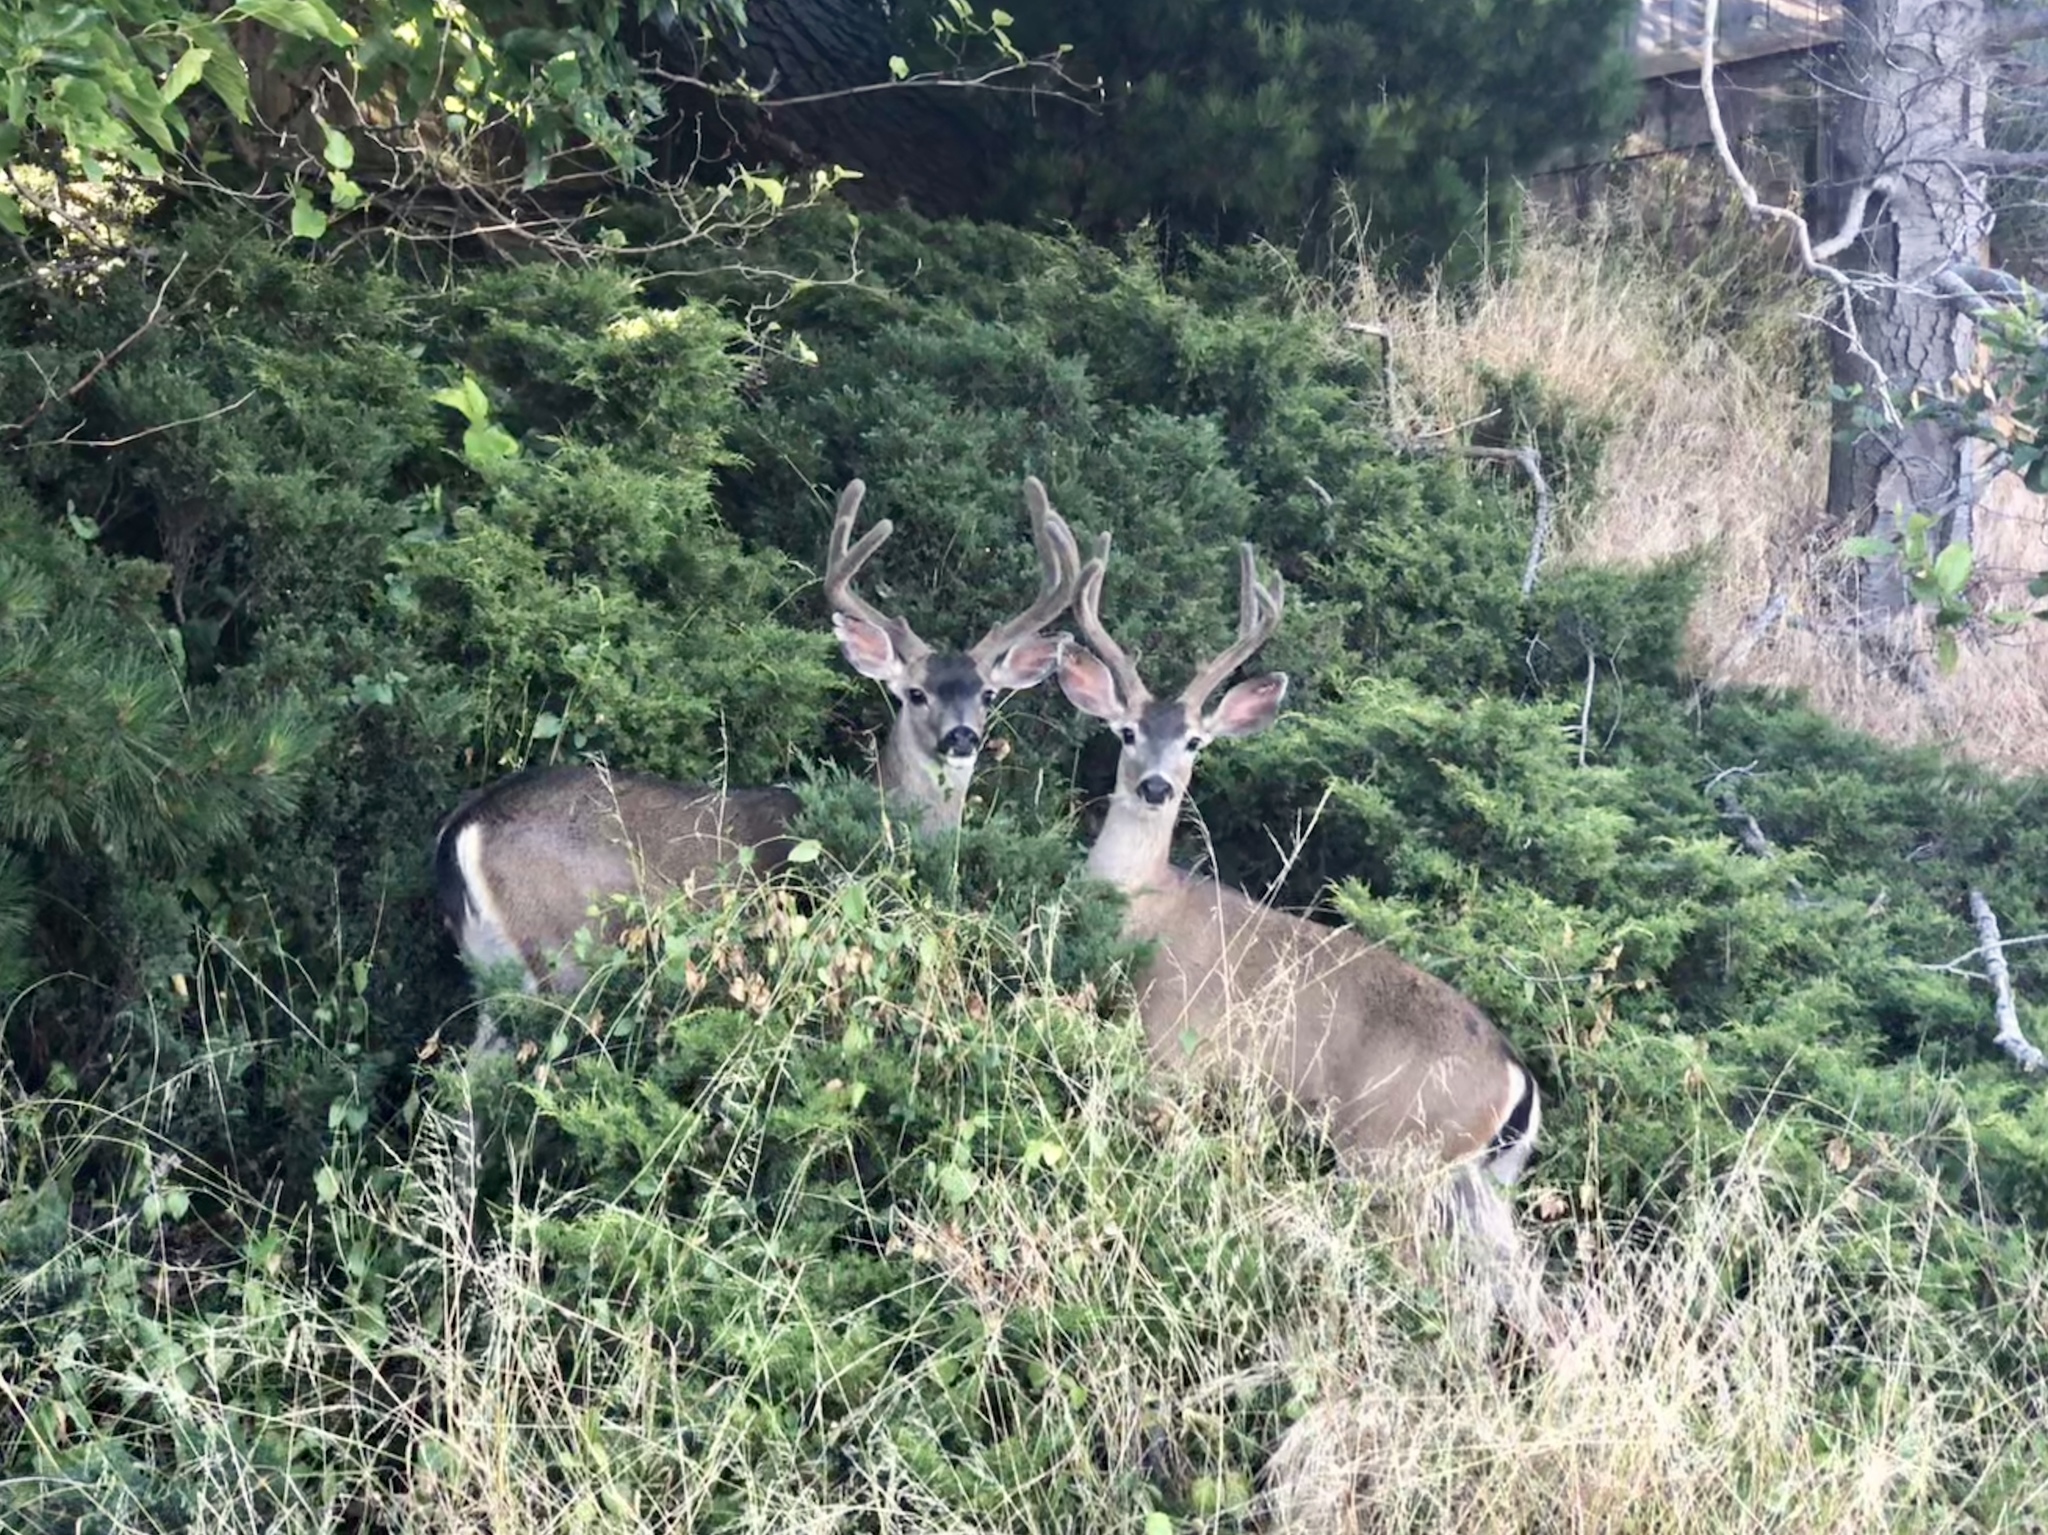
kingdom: Animalia
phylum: Chordata
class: Mammalia
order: Artiodactyla
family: Cervidae
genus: Odocoileus
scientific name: Odocoileus hemionus
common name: Mule deer
